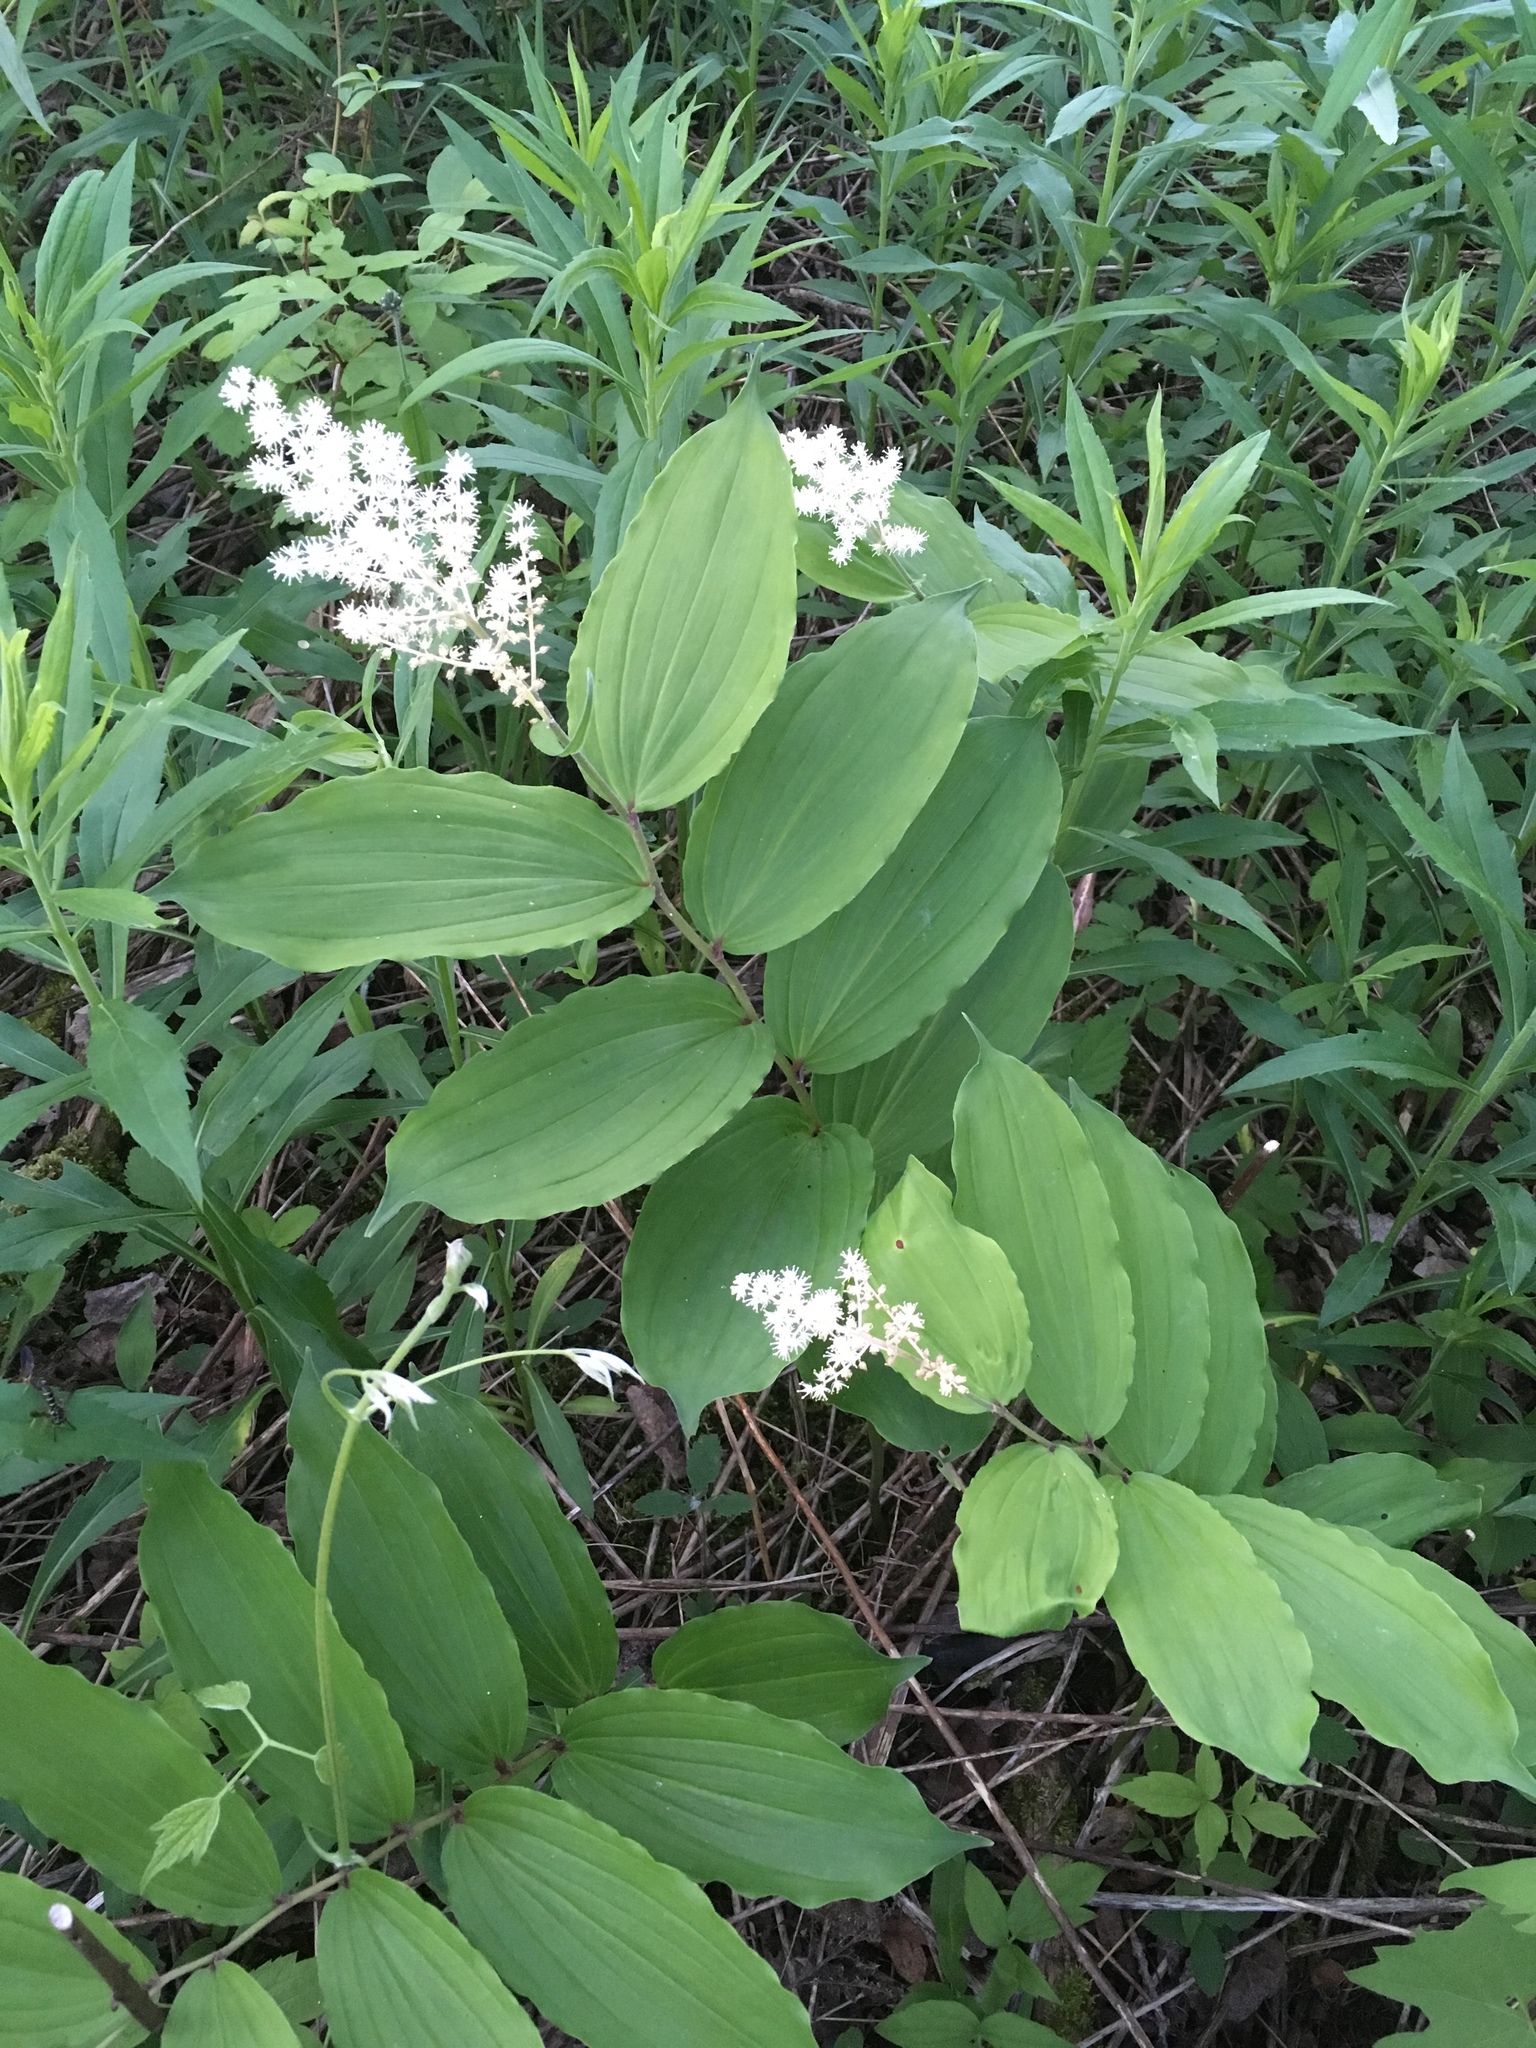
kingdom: Plantae
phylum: Tracheophyta
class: Liliopsida
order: Asparagales
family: Asparagaceae
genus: Maianthemum
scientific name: Maianthemum racemosum
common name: False spikenard
